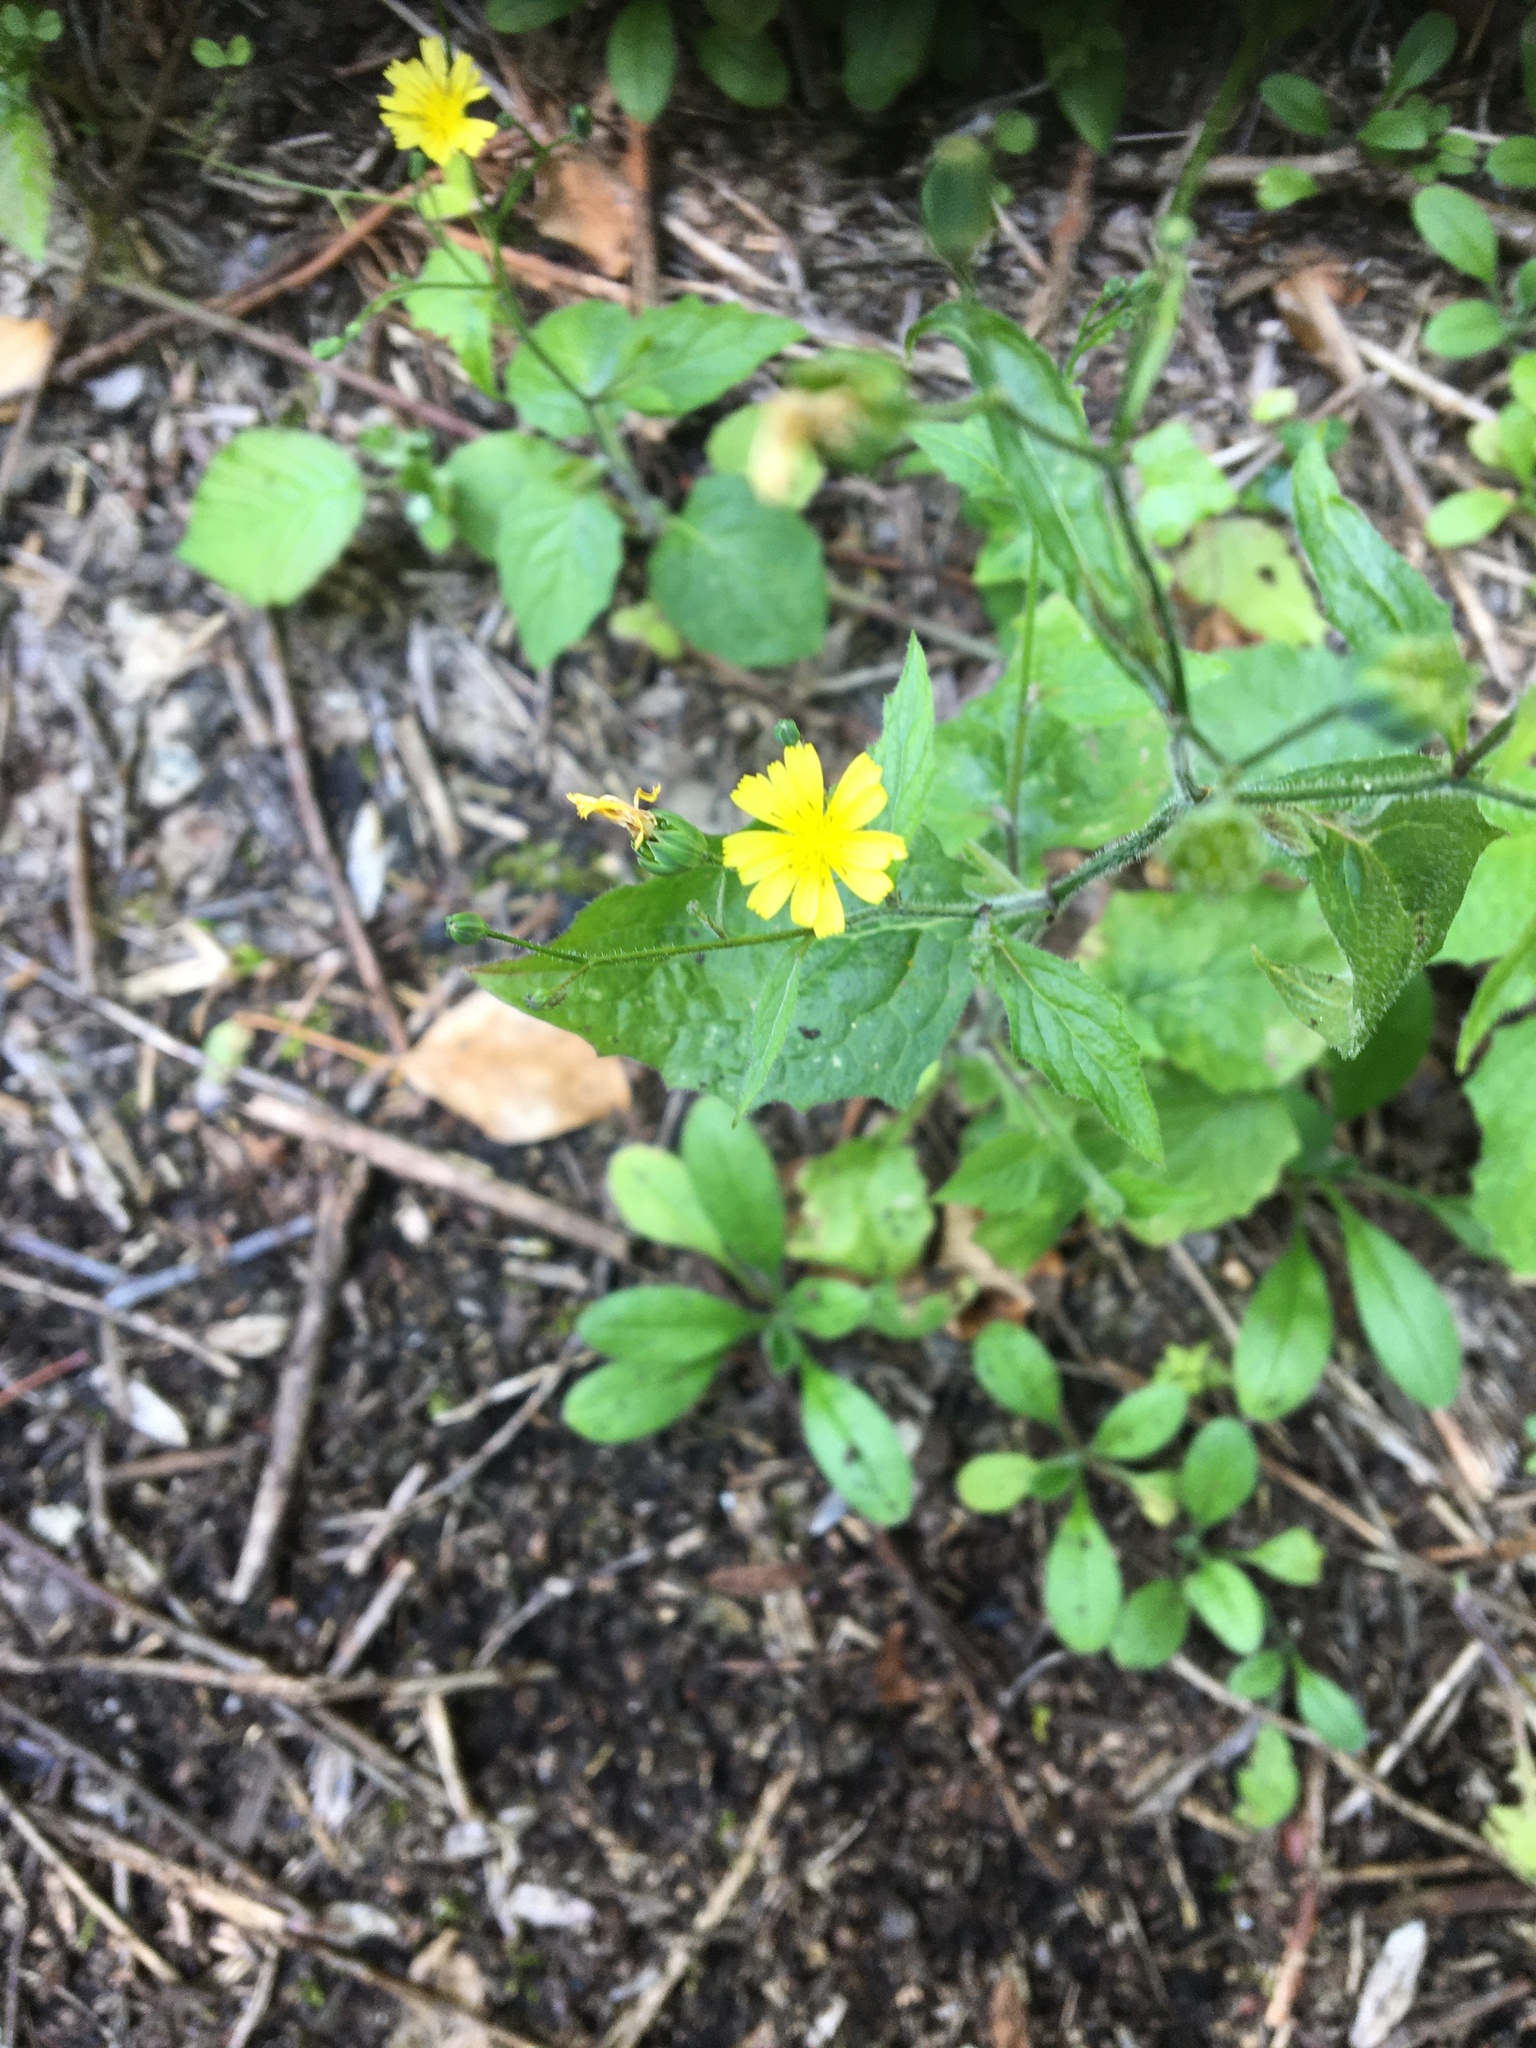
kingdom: Plantae
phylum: Tracheophyta
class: Magnoliopsida
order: Asterales
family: Asteraceae
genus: Lapsana
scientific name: Lapsana communis
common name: Nipplewort
